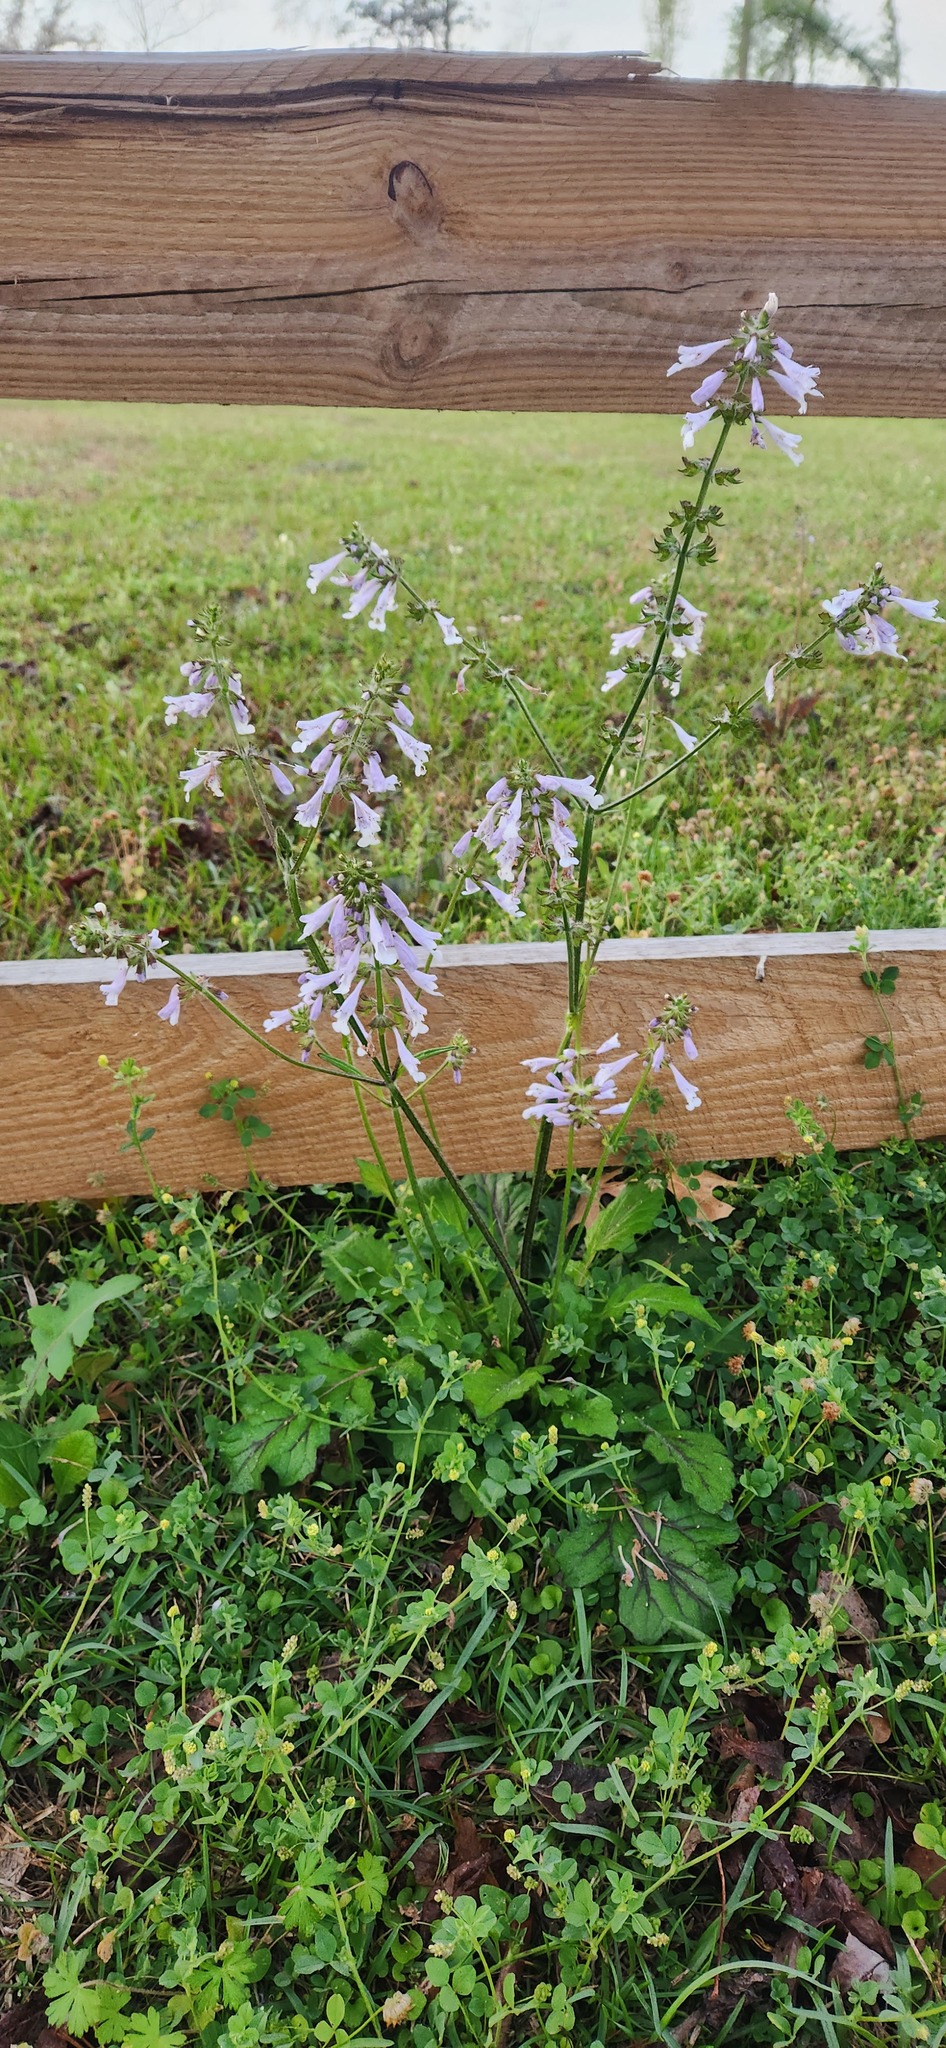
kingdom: Plantae
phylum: Tracheophyta
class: Magnoliopsida
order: Lamiales
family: Lamiaceae
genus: Salvia
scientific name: Salvia lyrata
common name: Cancerweed
